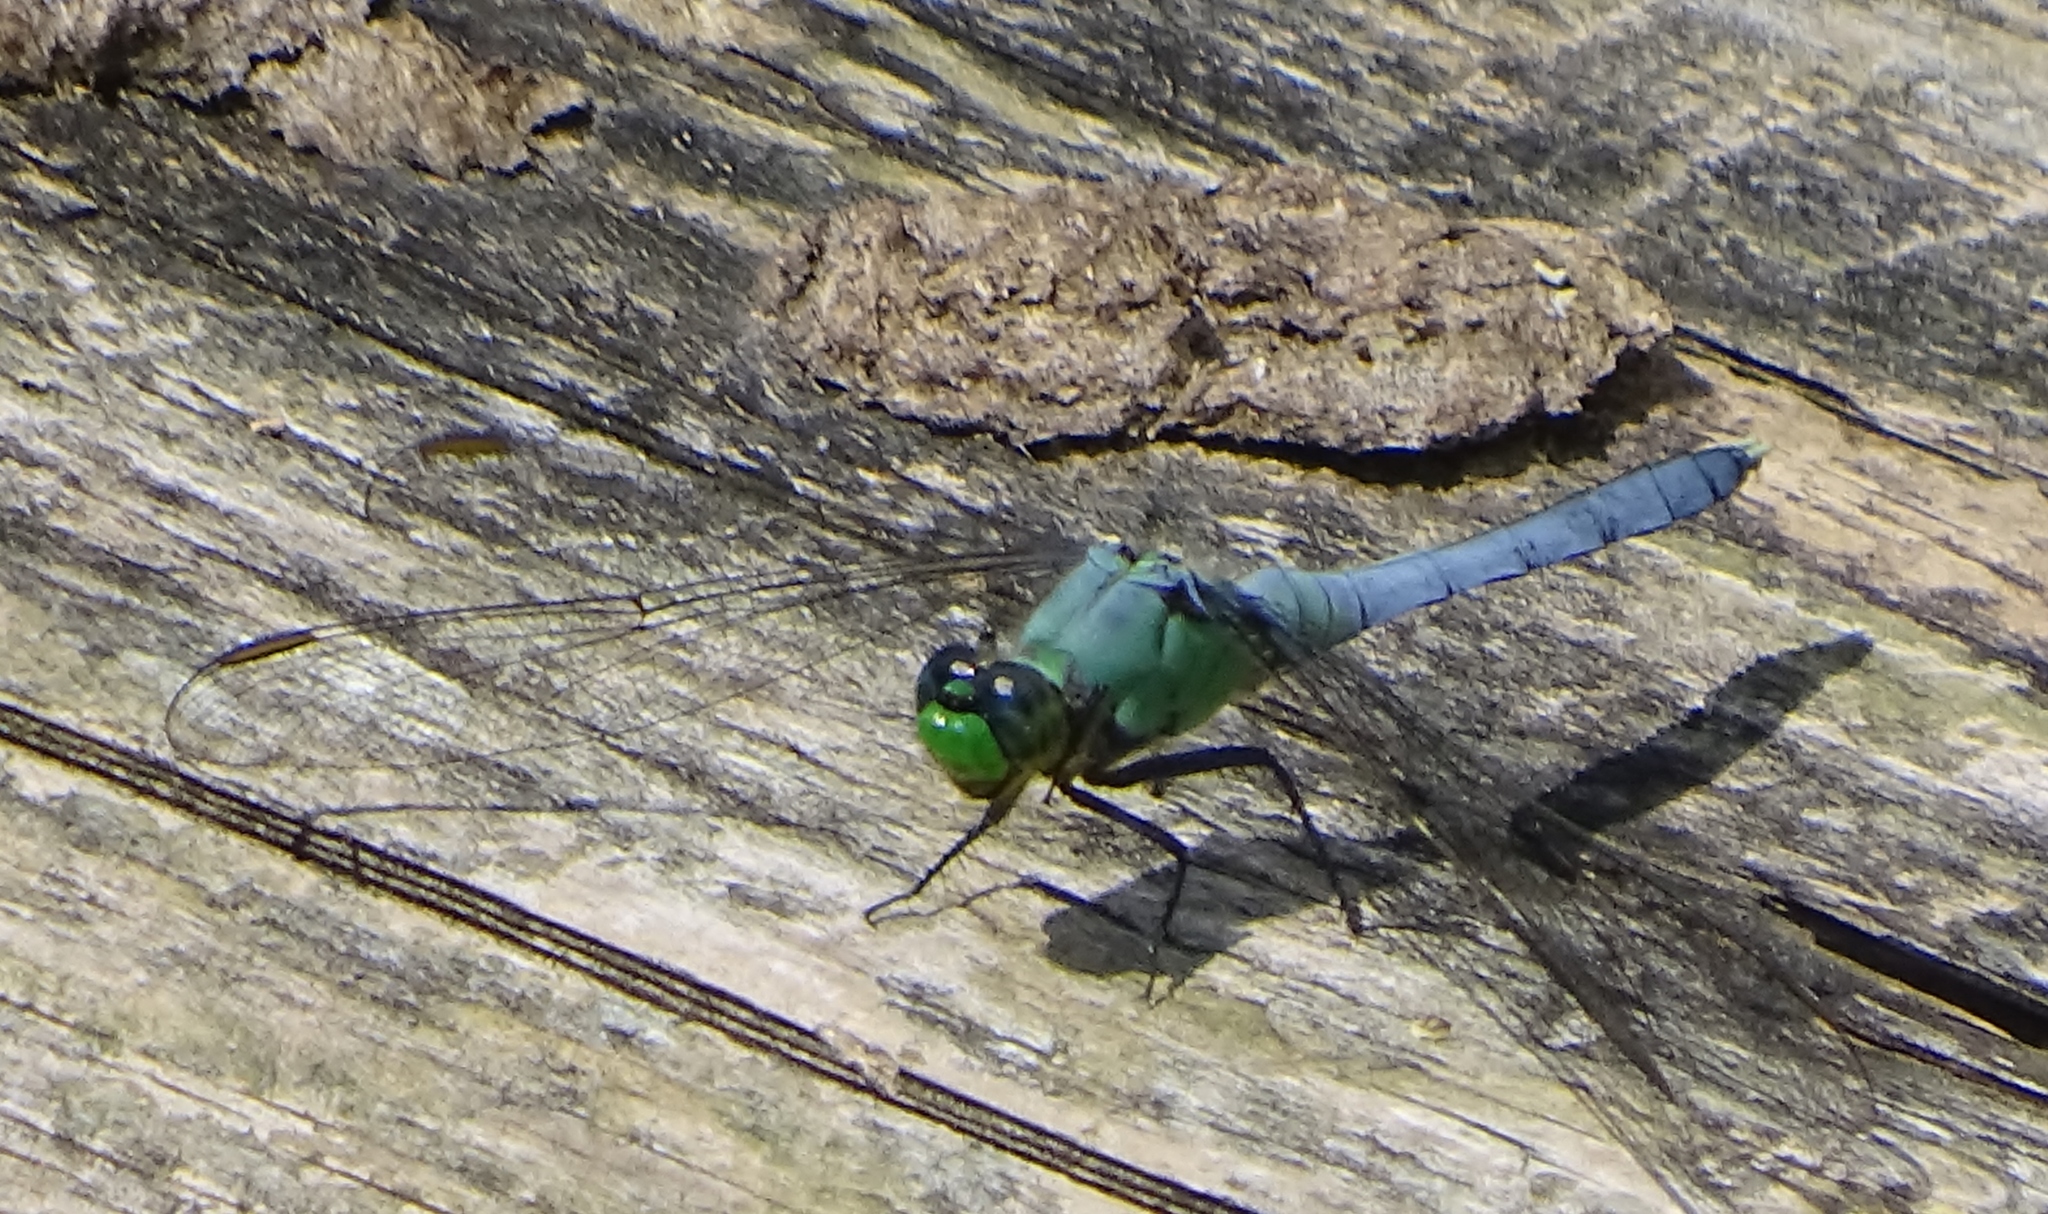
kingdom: Animalia
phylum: Arthropoda
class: Insecta
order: Odonata
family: Libellulidae
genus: Erythemis
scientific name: Erythemis simplicicollis
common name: Eastern pondhawk
